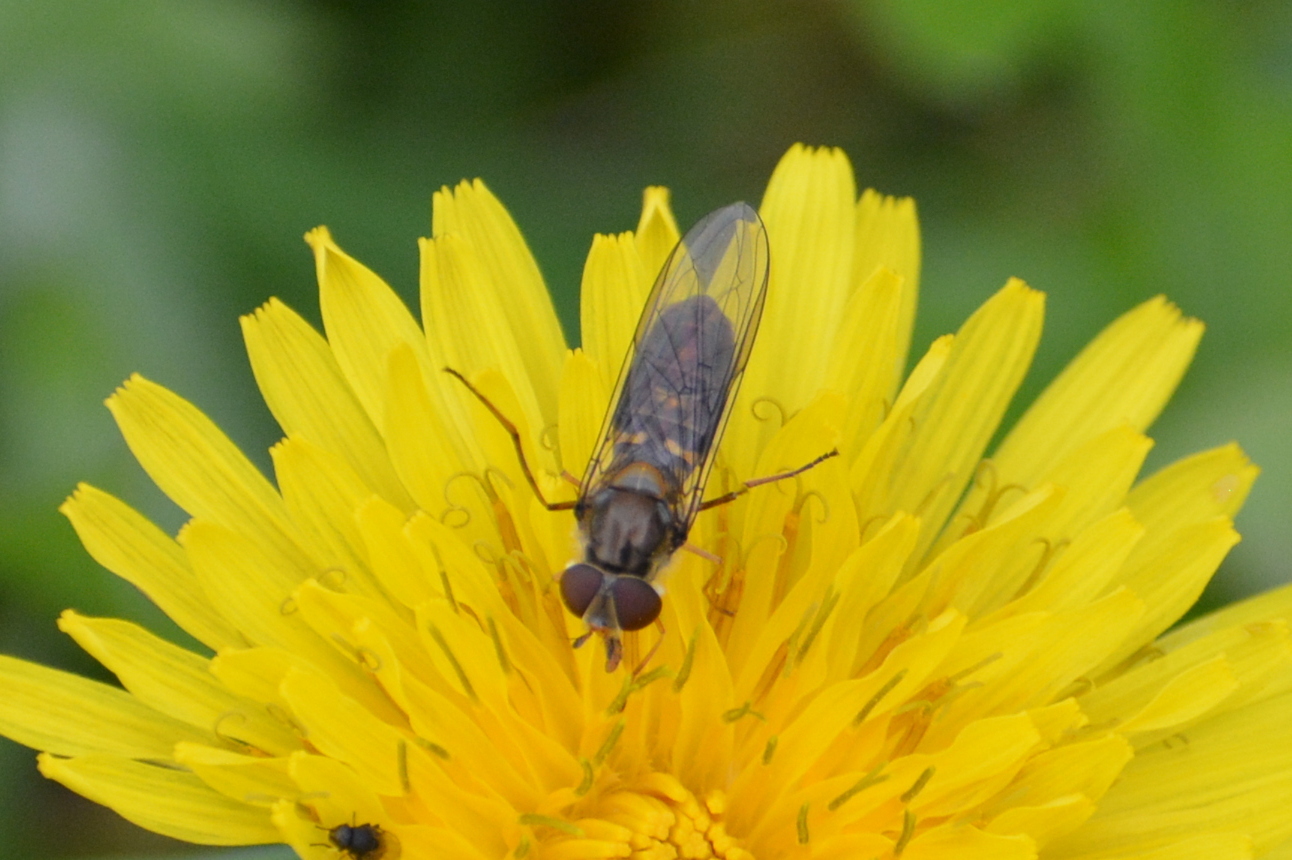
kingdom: Animalia
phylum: Arthropoda
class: Insecta
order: Diptera
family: Syrphidae
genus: Episyrphus
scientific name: Episyrphus balteatus
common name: Marmalade hoverfly
